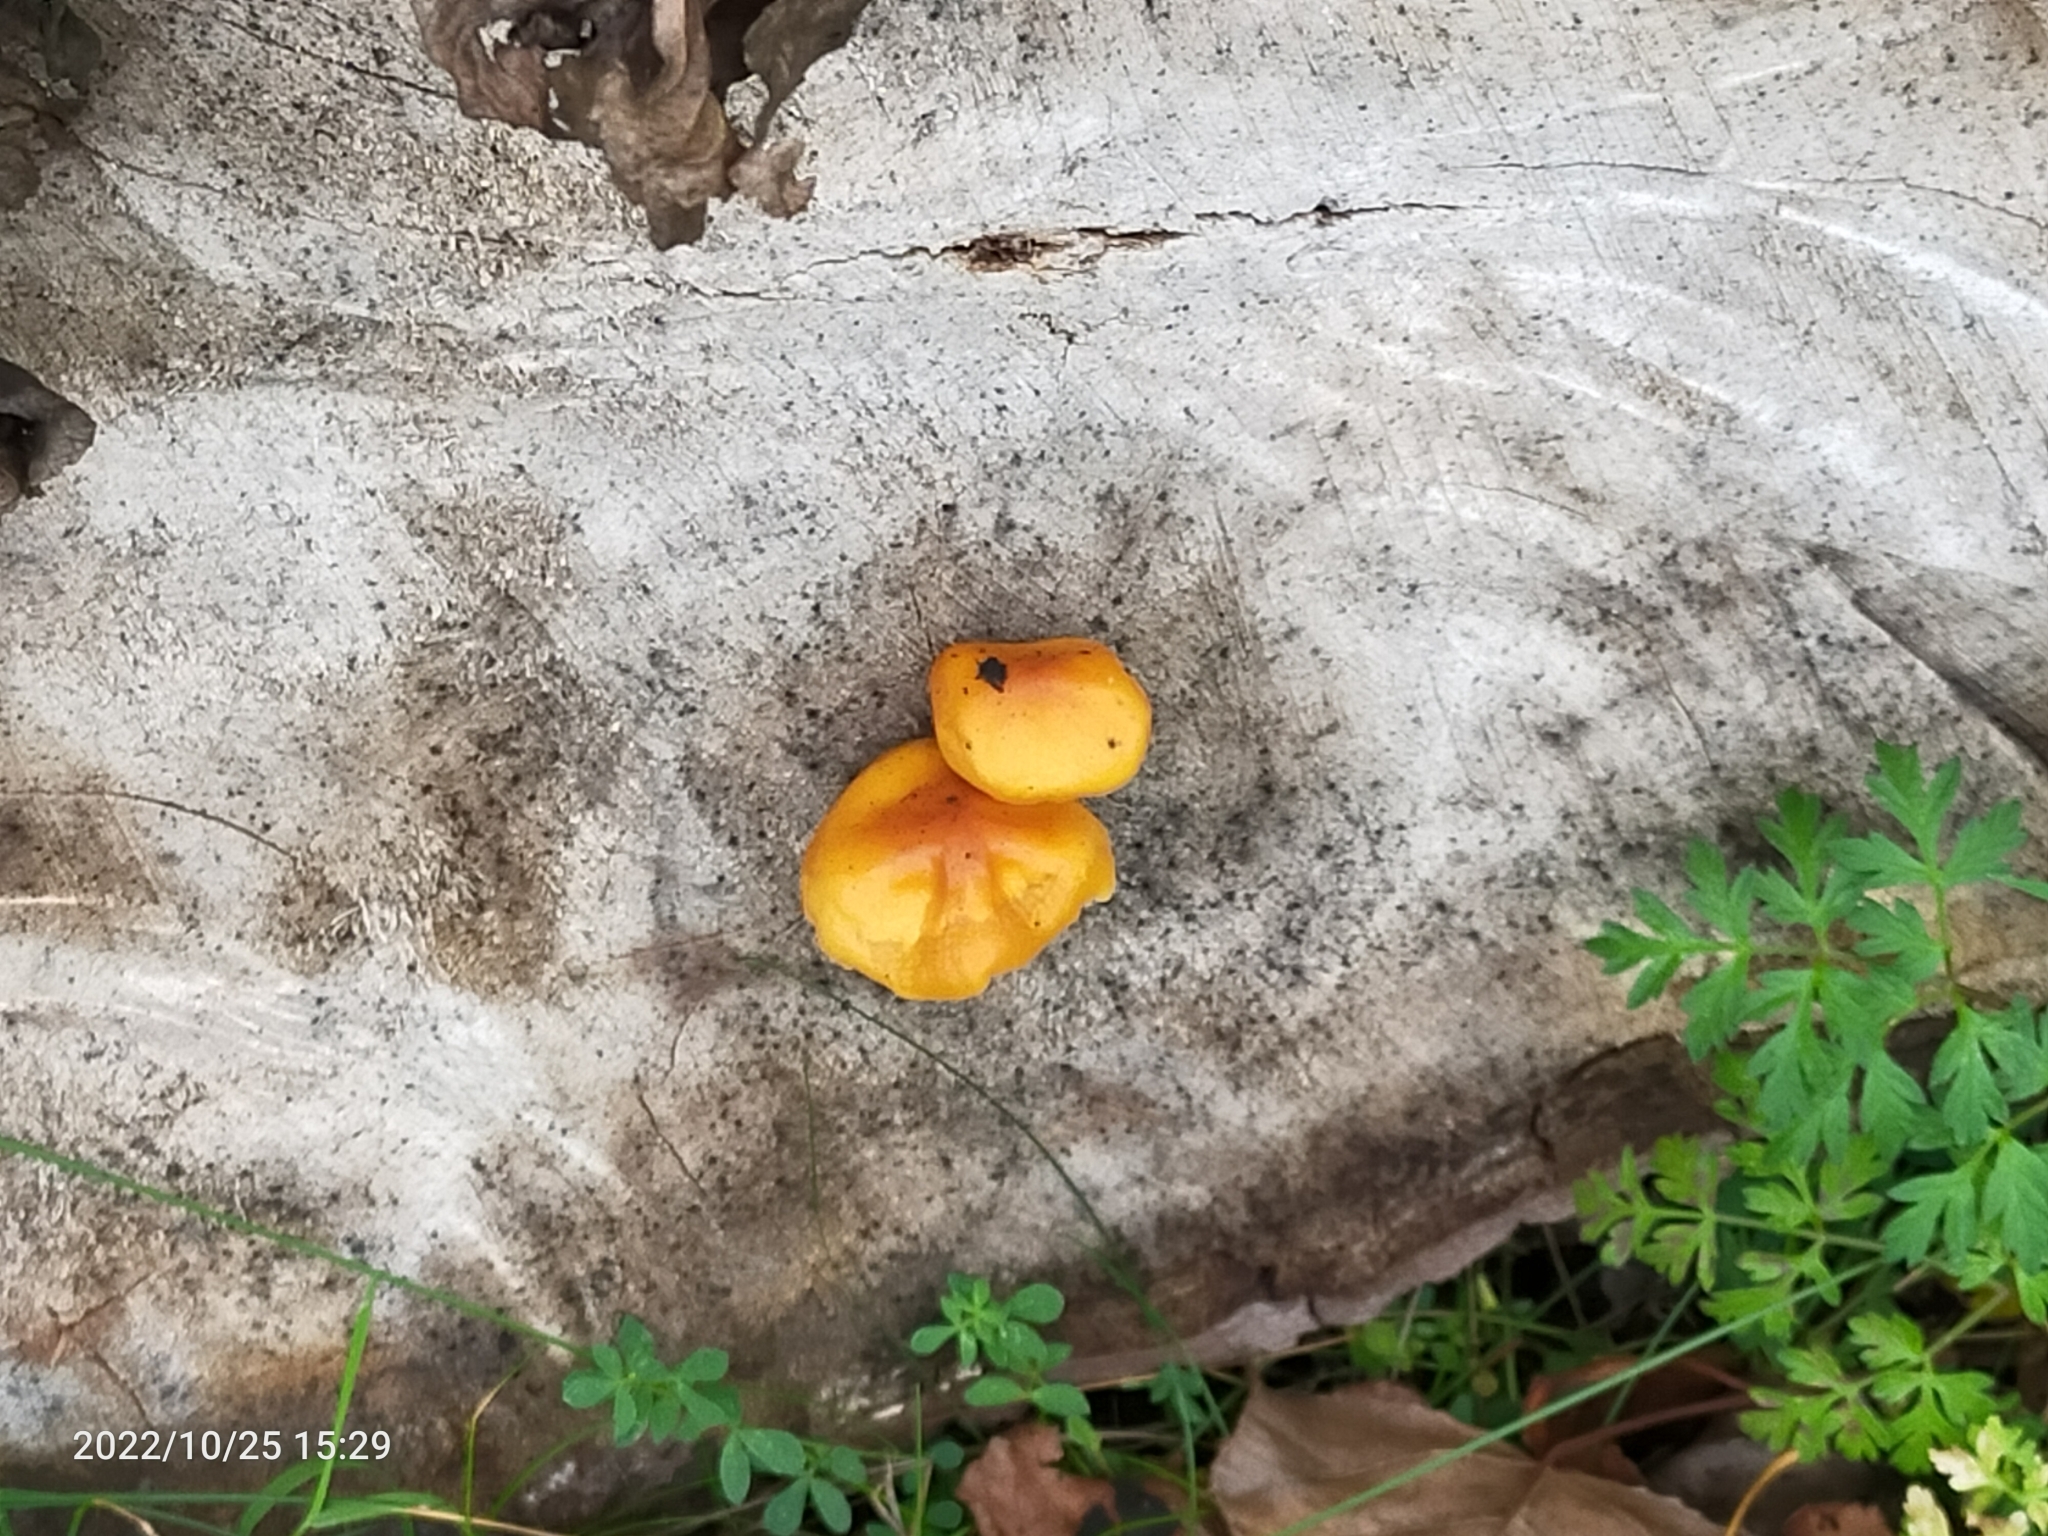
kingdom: Fungi
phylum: Basidiomycota
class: Agaricomycetes
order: Agaricales
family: Pluteaceae
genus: Pluteus
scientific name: Pluteus aurantiorugosus
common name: Flame shield
